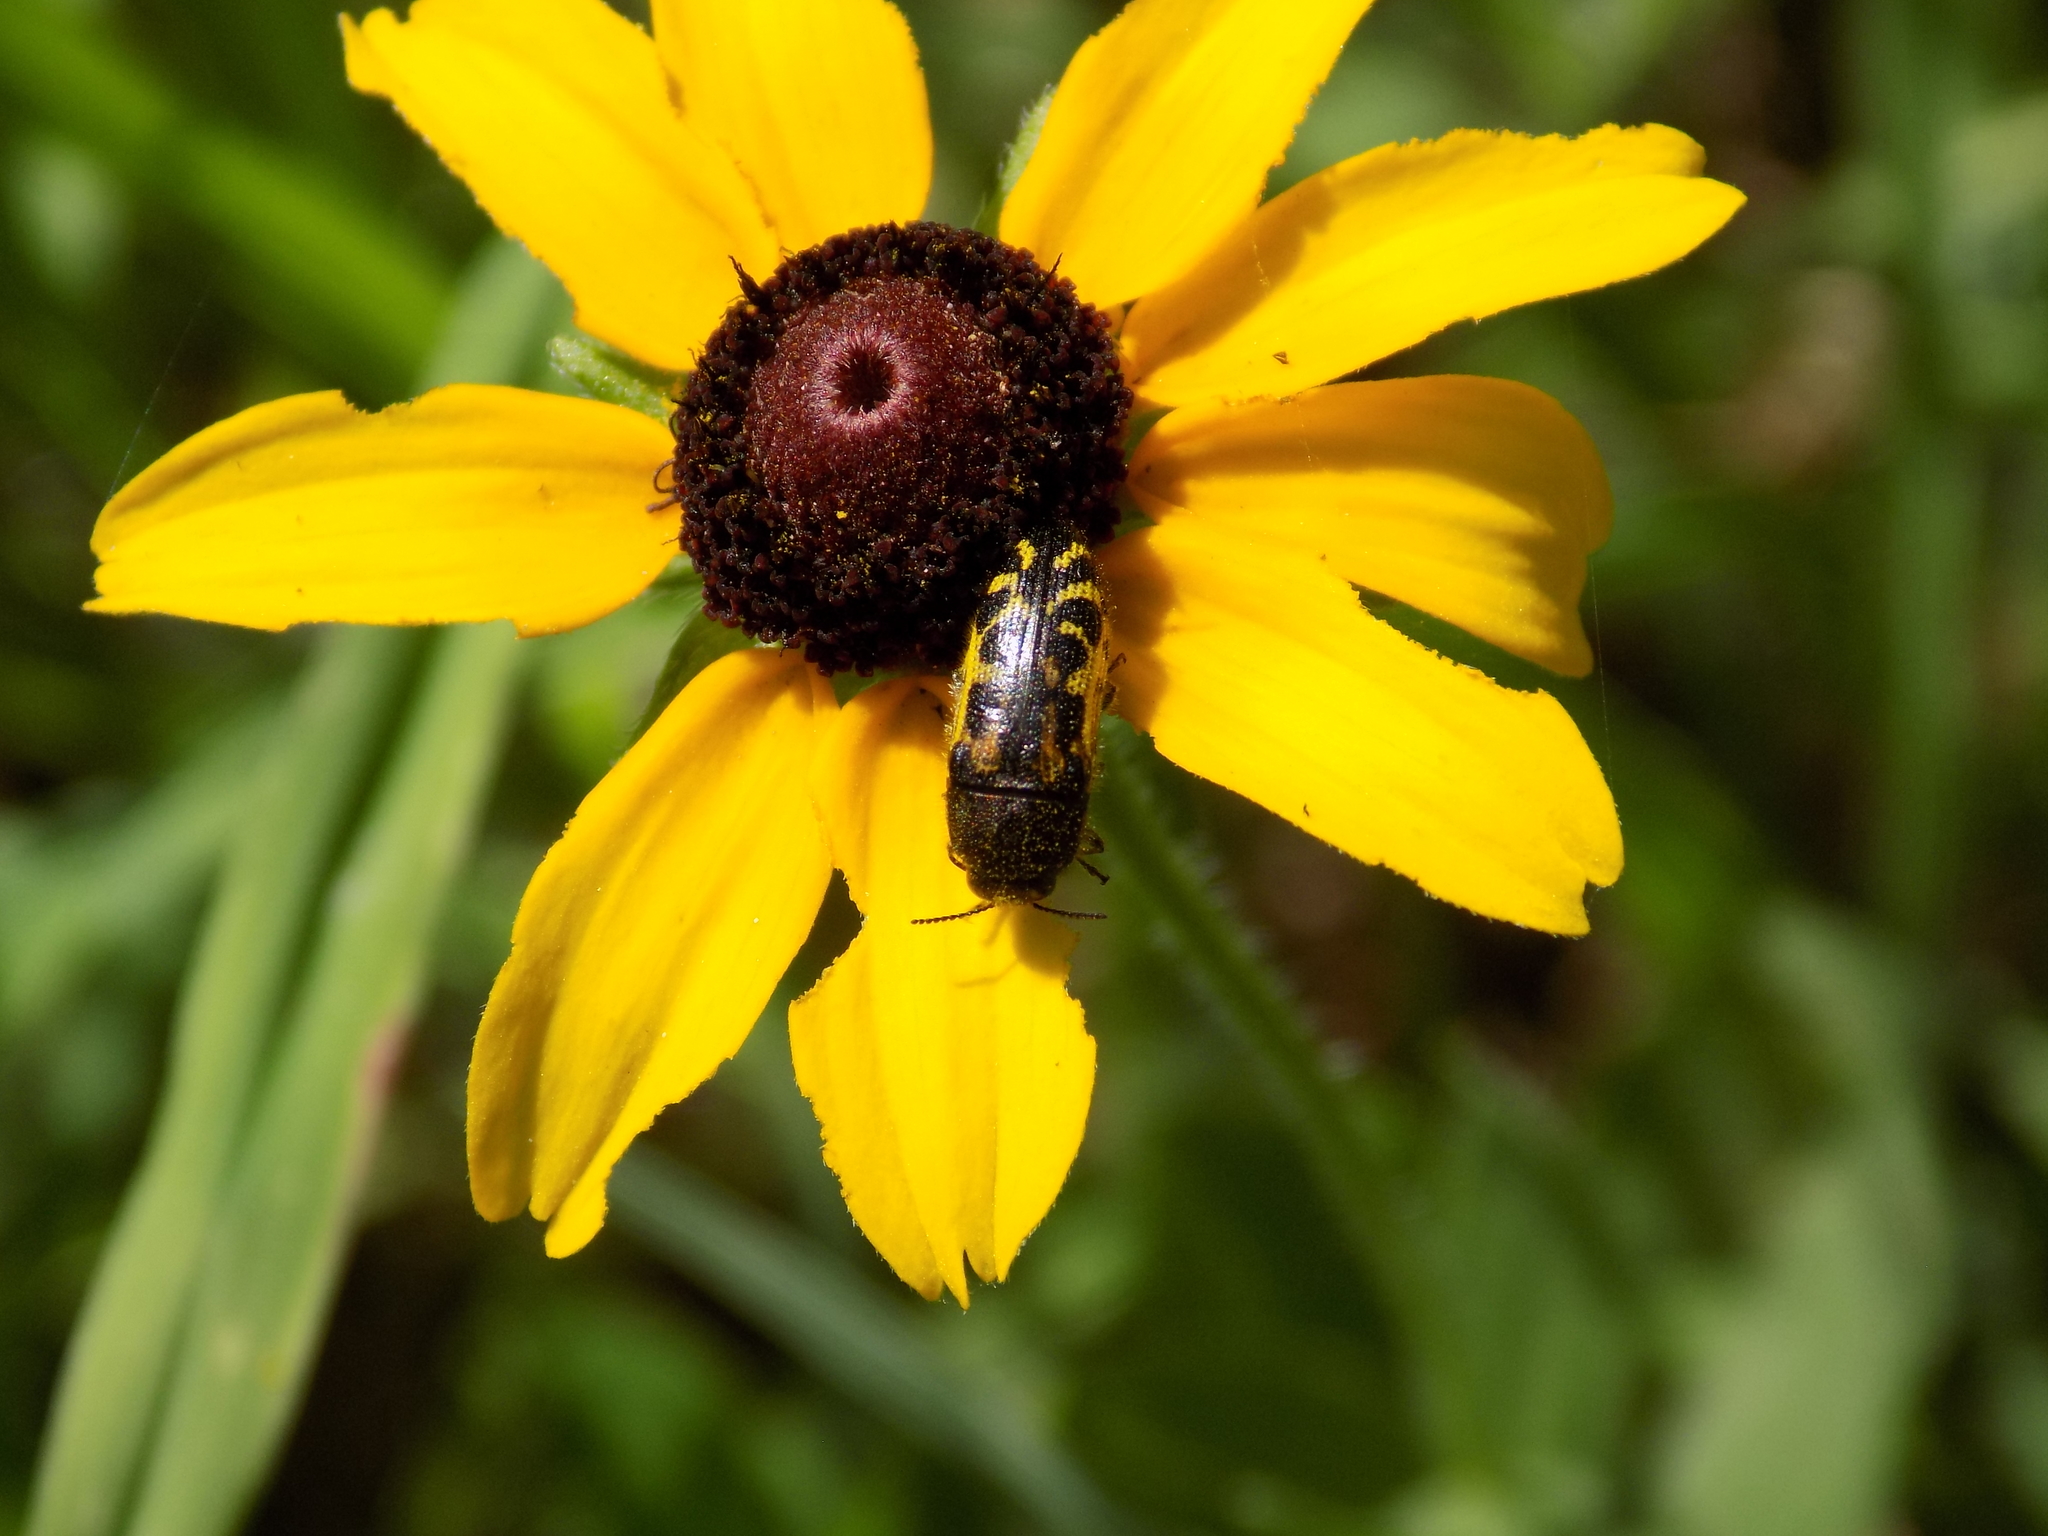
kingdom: Animalia
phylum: Arthropoda
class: Insecta
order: Coleoptera
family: Buprestidae
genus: Acmaeodera
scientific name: Acmaeodera pulchella
